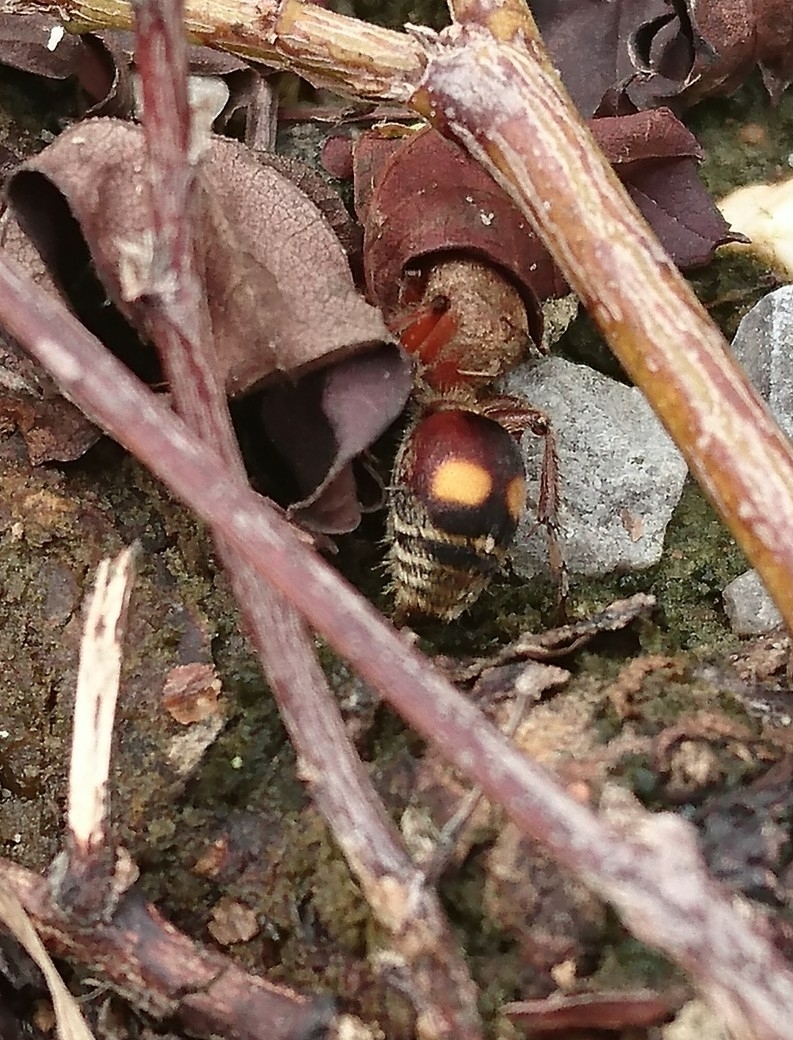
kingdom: Animalia
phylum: Arthropoda
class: Insecta
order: Hymenoptera
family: Mutillidae
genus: Dasymutilla
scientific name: Dasymutilla
